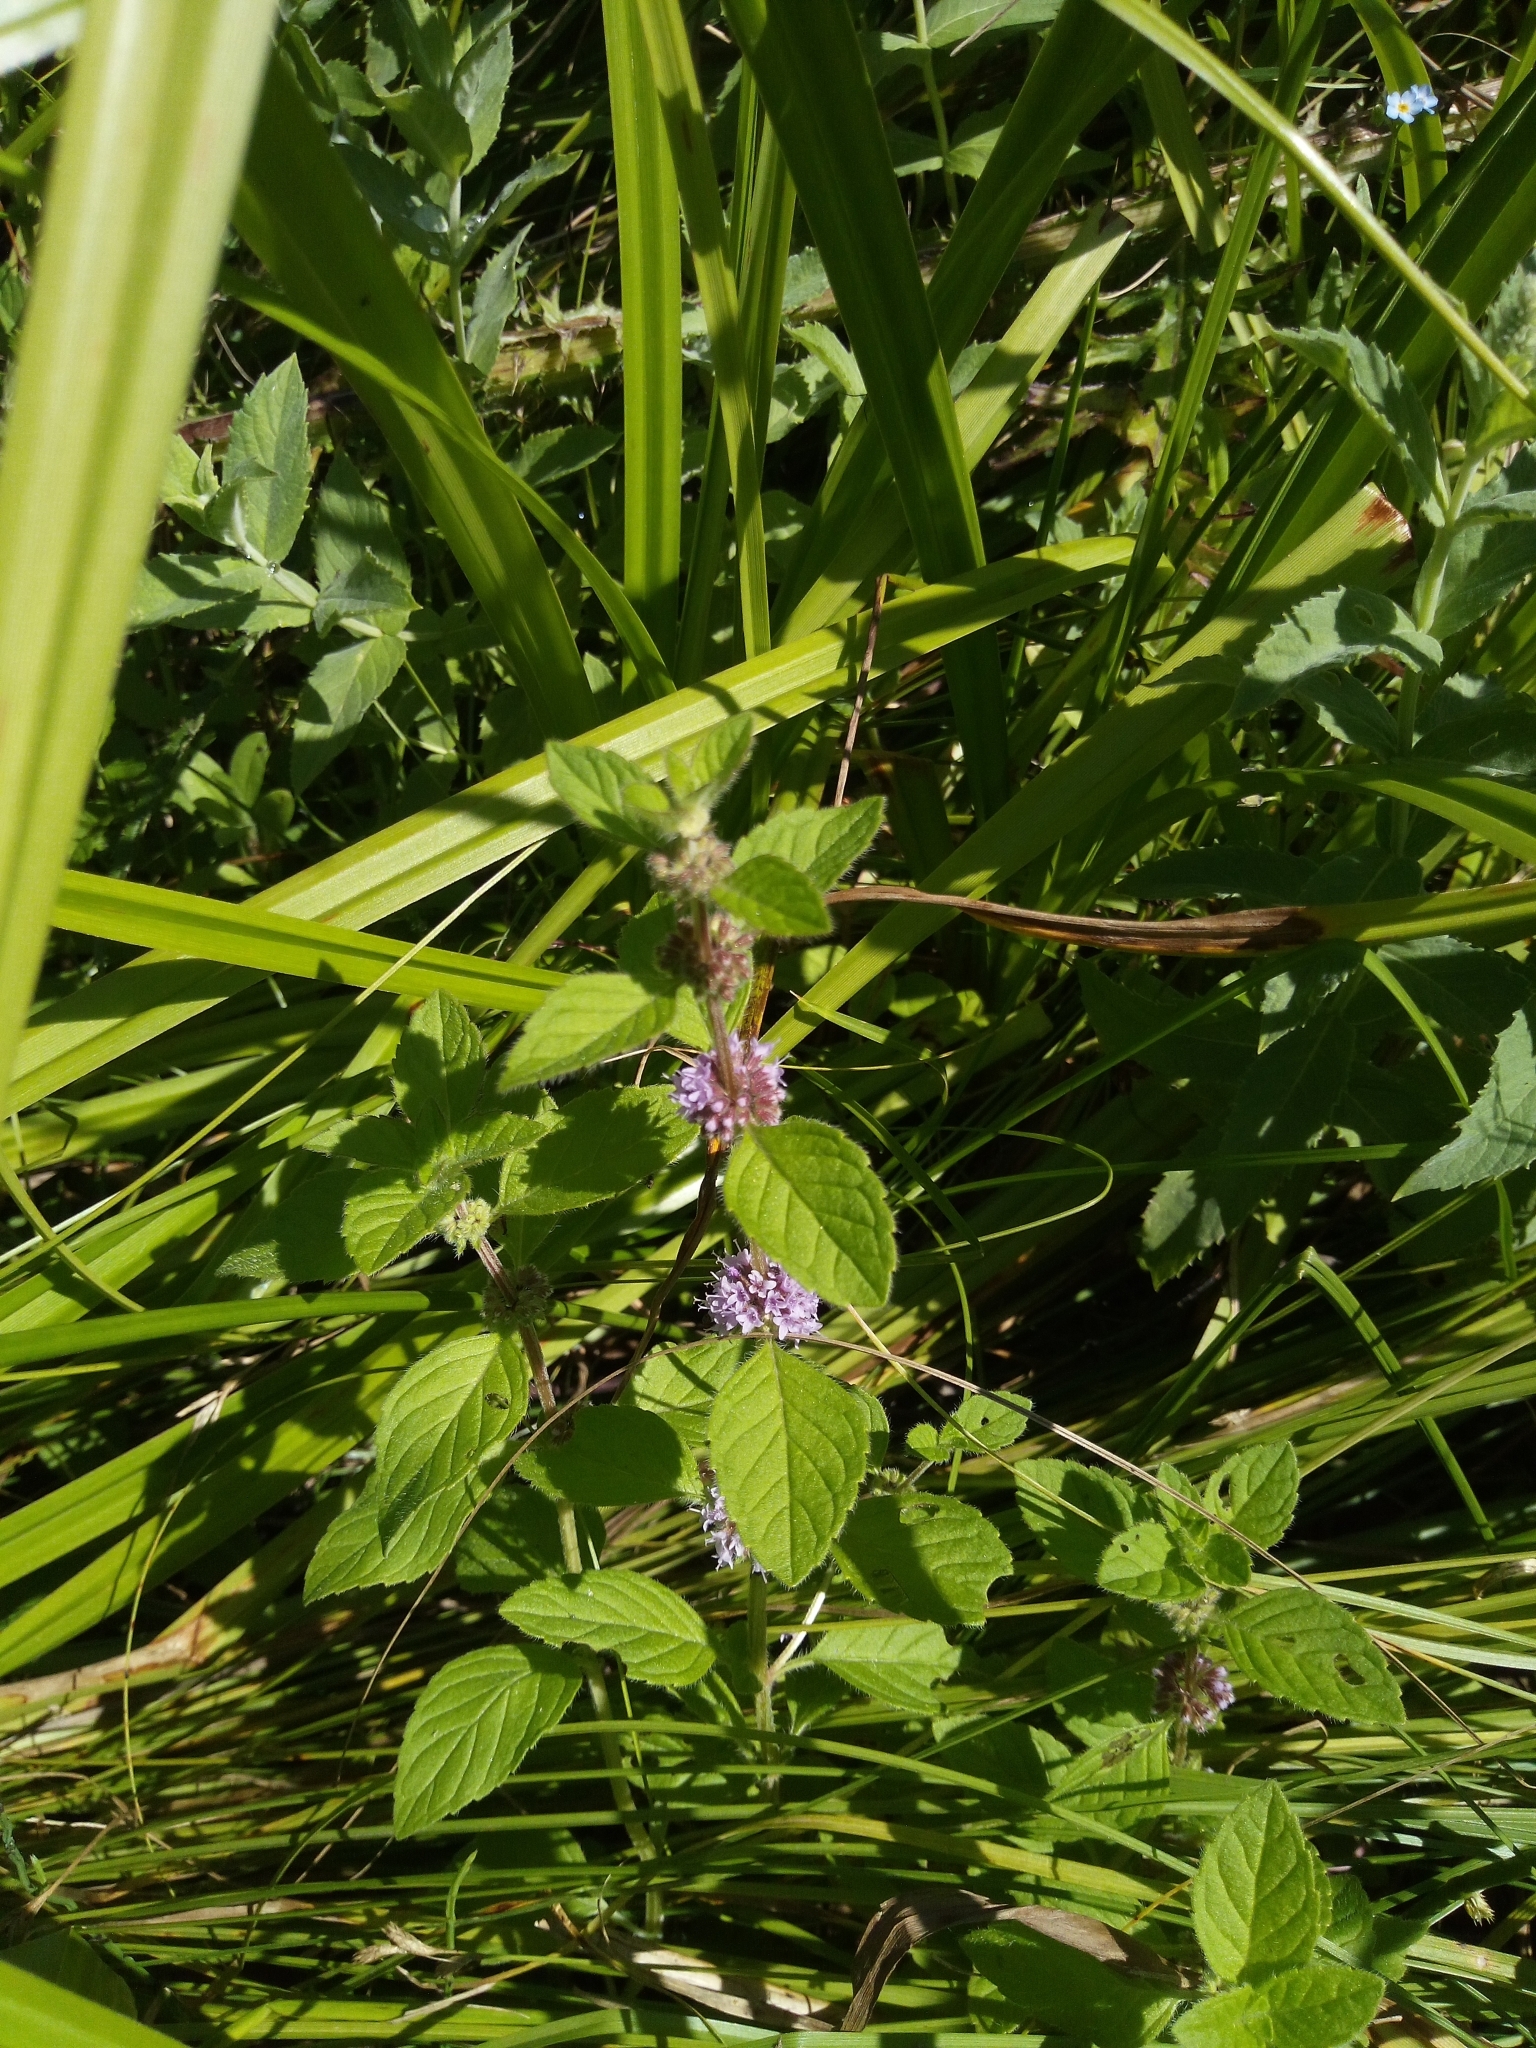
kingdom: Plantae
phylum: Tracheophyta
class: Magnoliopsida
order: Lamiales
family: Lamiaceae
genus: Mentha
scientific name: Mentha arvensis
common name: Corn mint
